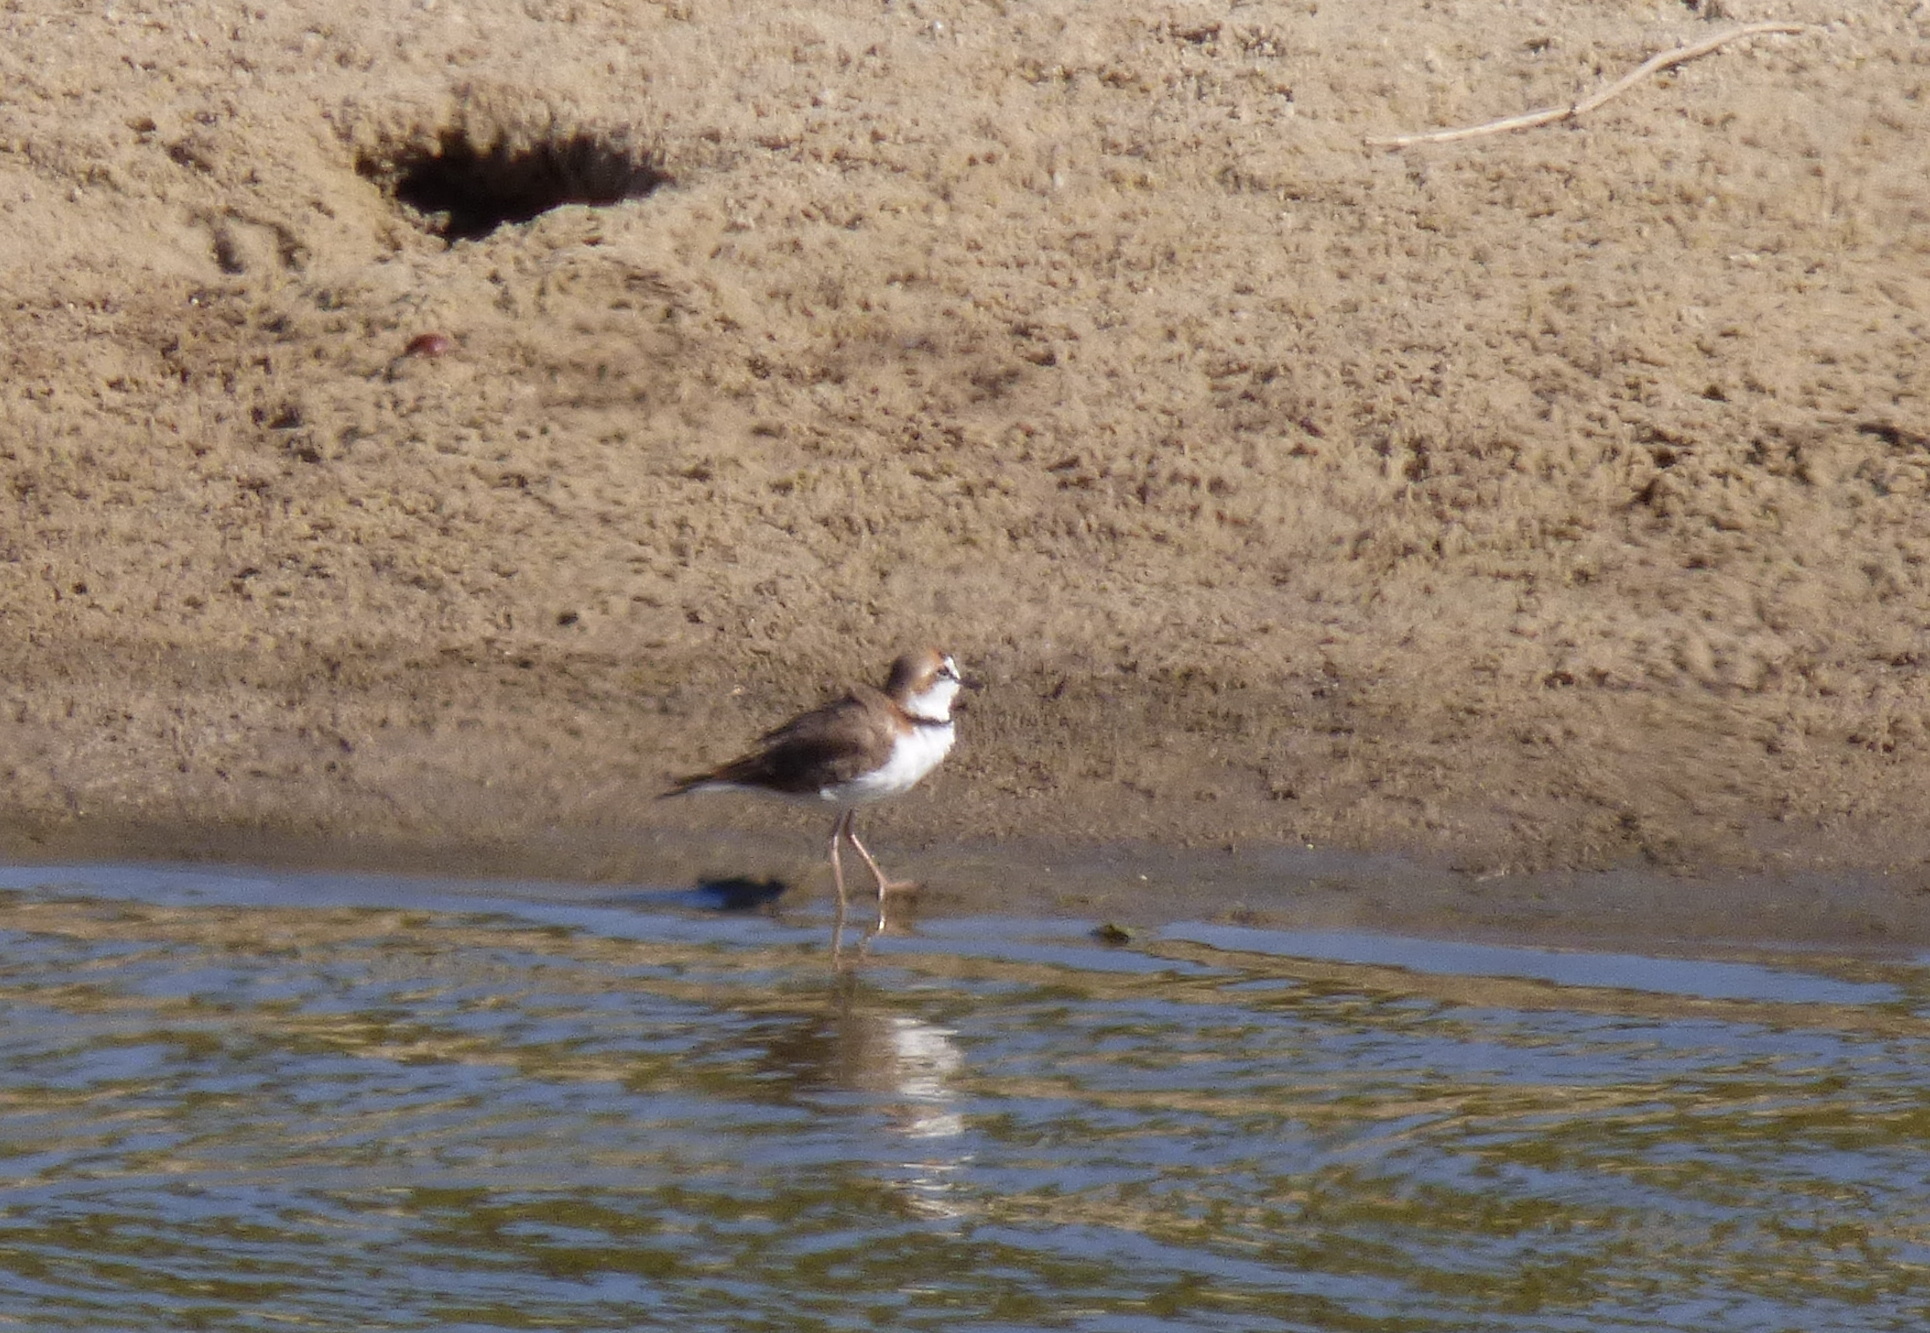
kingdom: Animalia
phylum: Chordata
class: Aves
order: Charadriiformes
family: Charadriidae
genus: Anarhynchus
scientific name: Anarhynchus
